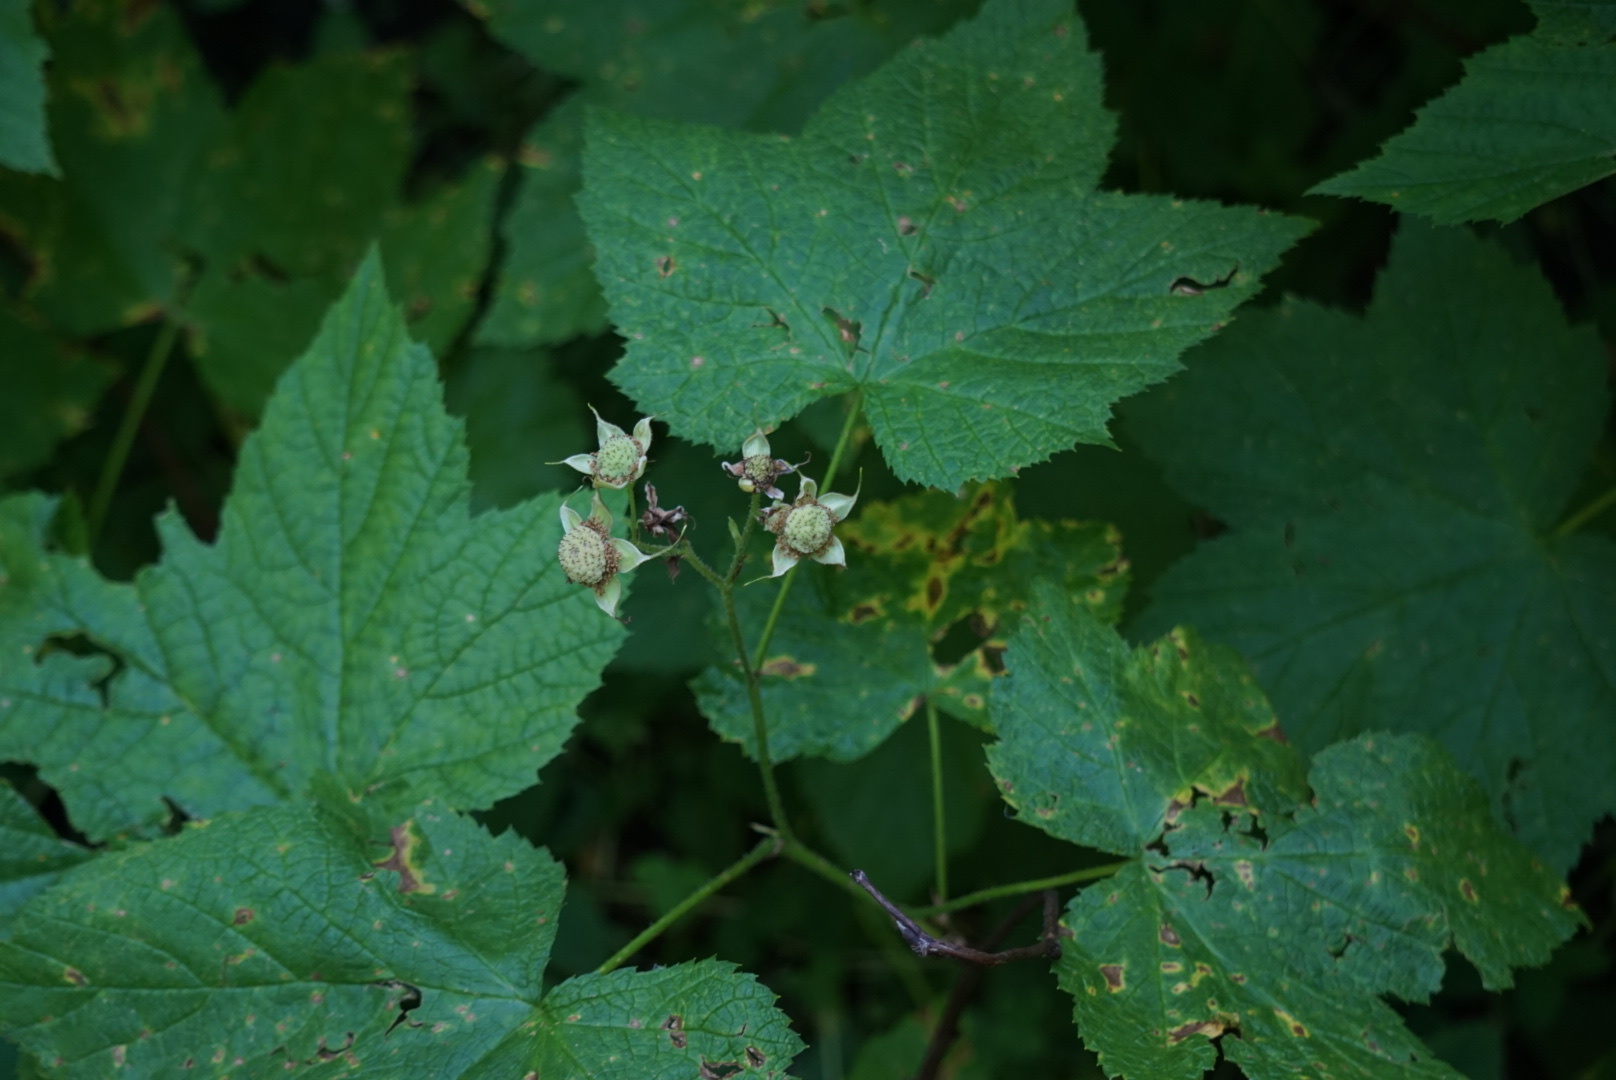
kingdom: Plantae
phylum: Tracheophyta
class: Magnoliopsida
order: Rosales
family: Rosaceae
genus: Rubus
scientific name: Rubus parviflorus
